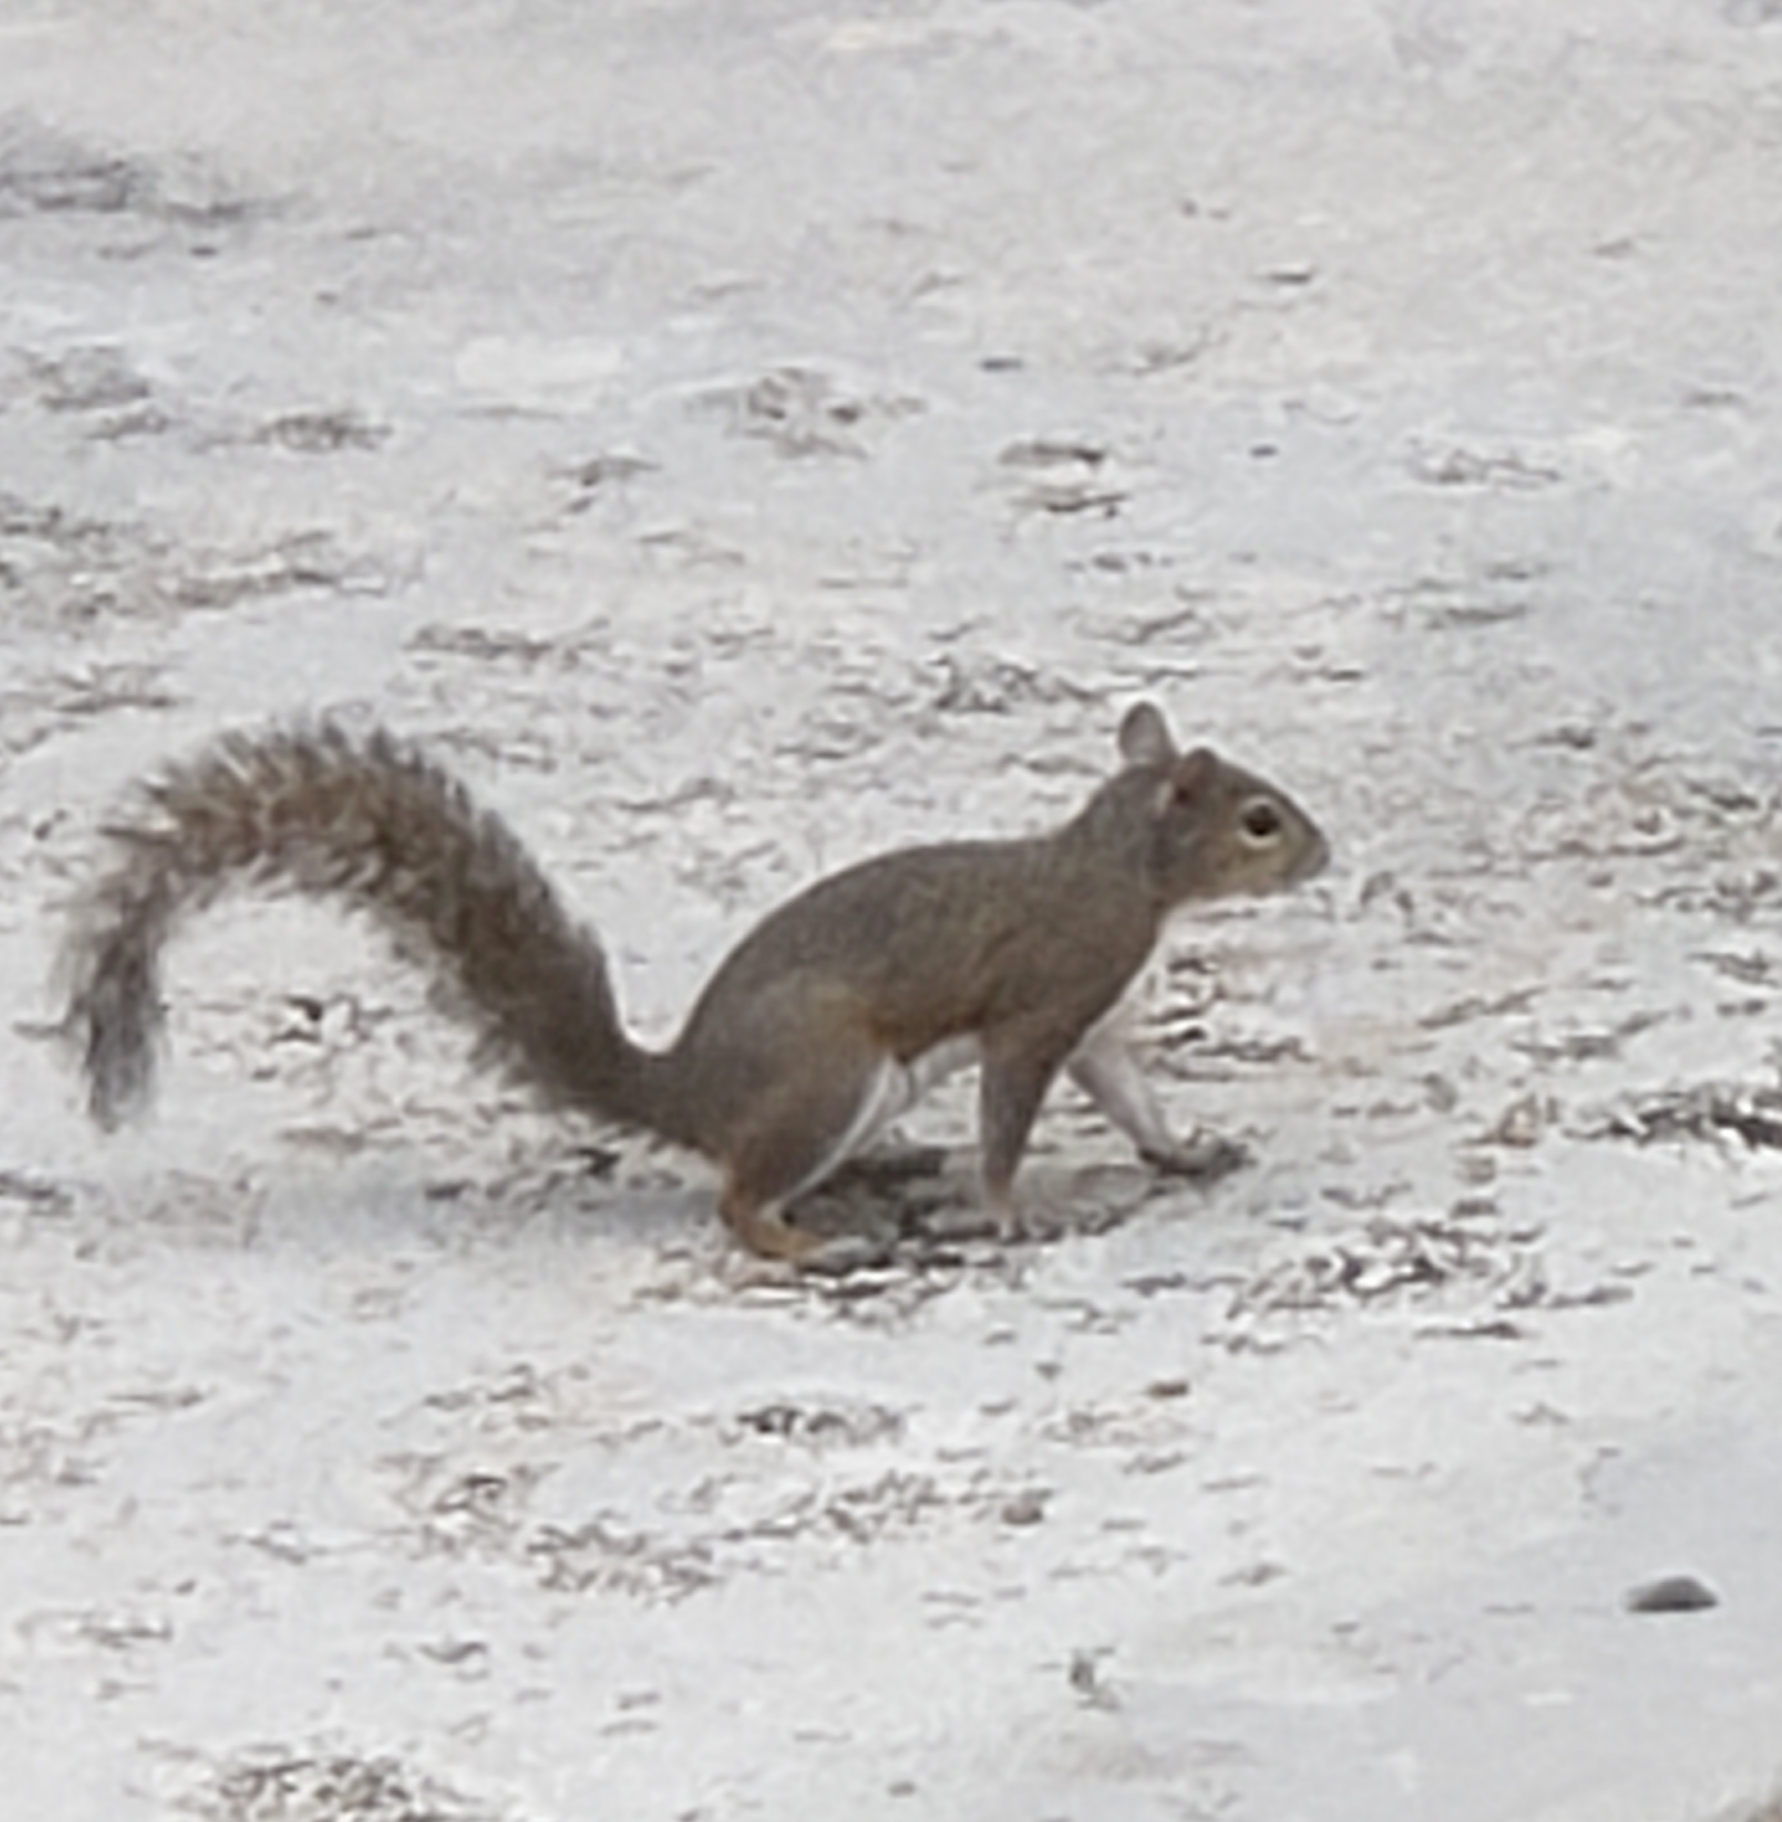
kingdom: Animalia
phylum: Chordata
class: Mammalia
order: Rodentia
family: Sciuridae
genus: Sciurus
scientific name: Sciurus carolinensis
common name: Eastern gray squirrel
